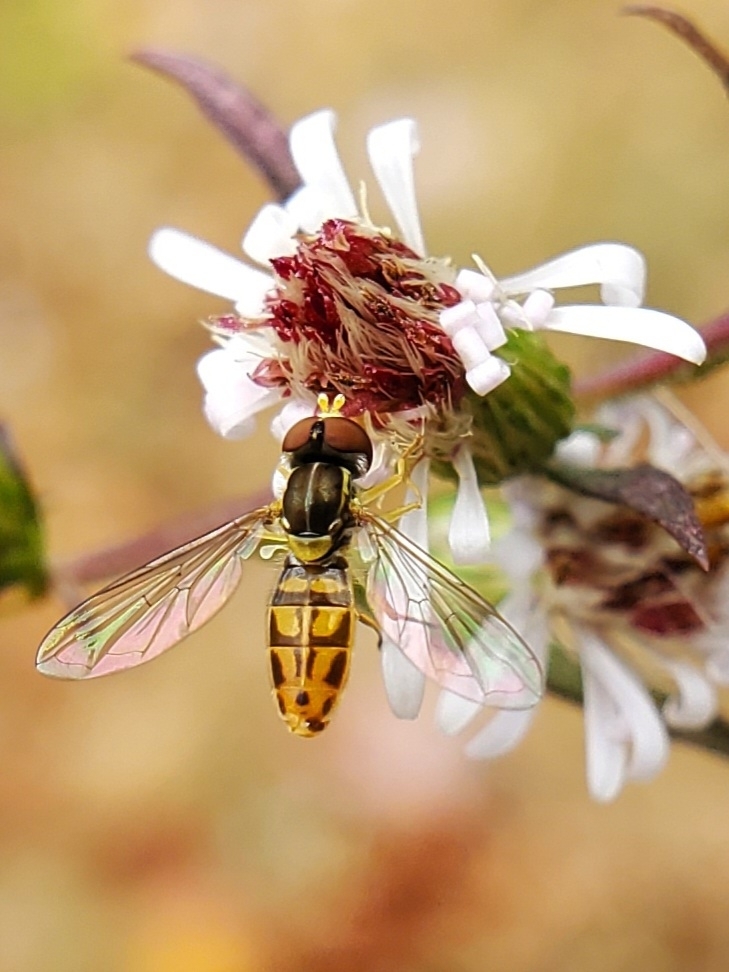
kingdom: Animalia
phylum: Arthropoda
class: Insecta
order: Diptera
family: Syrphidae
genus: Toxomerus
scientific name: Toxomerus marginatus
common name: Syrphid fly
